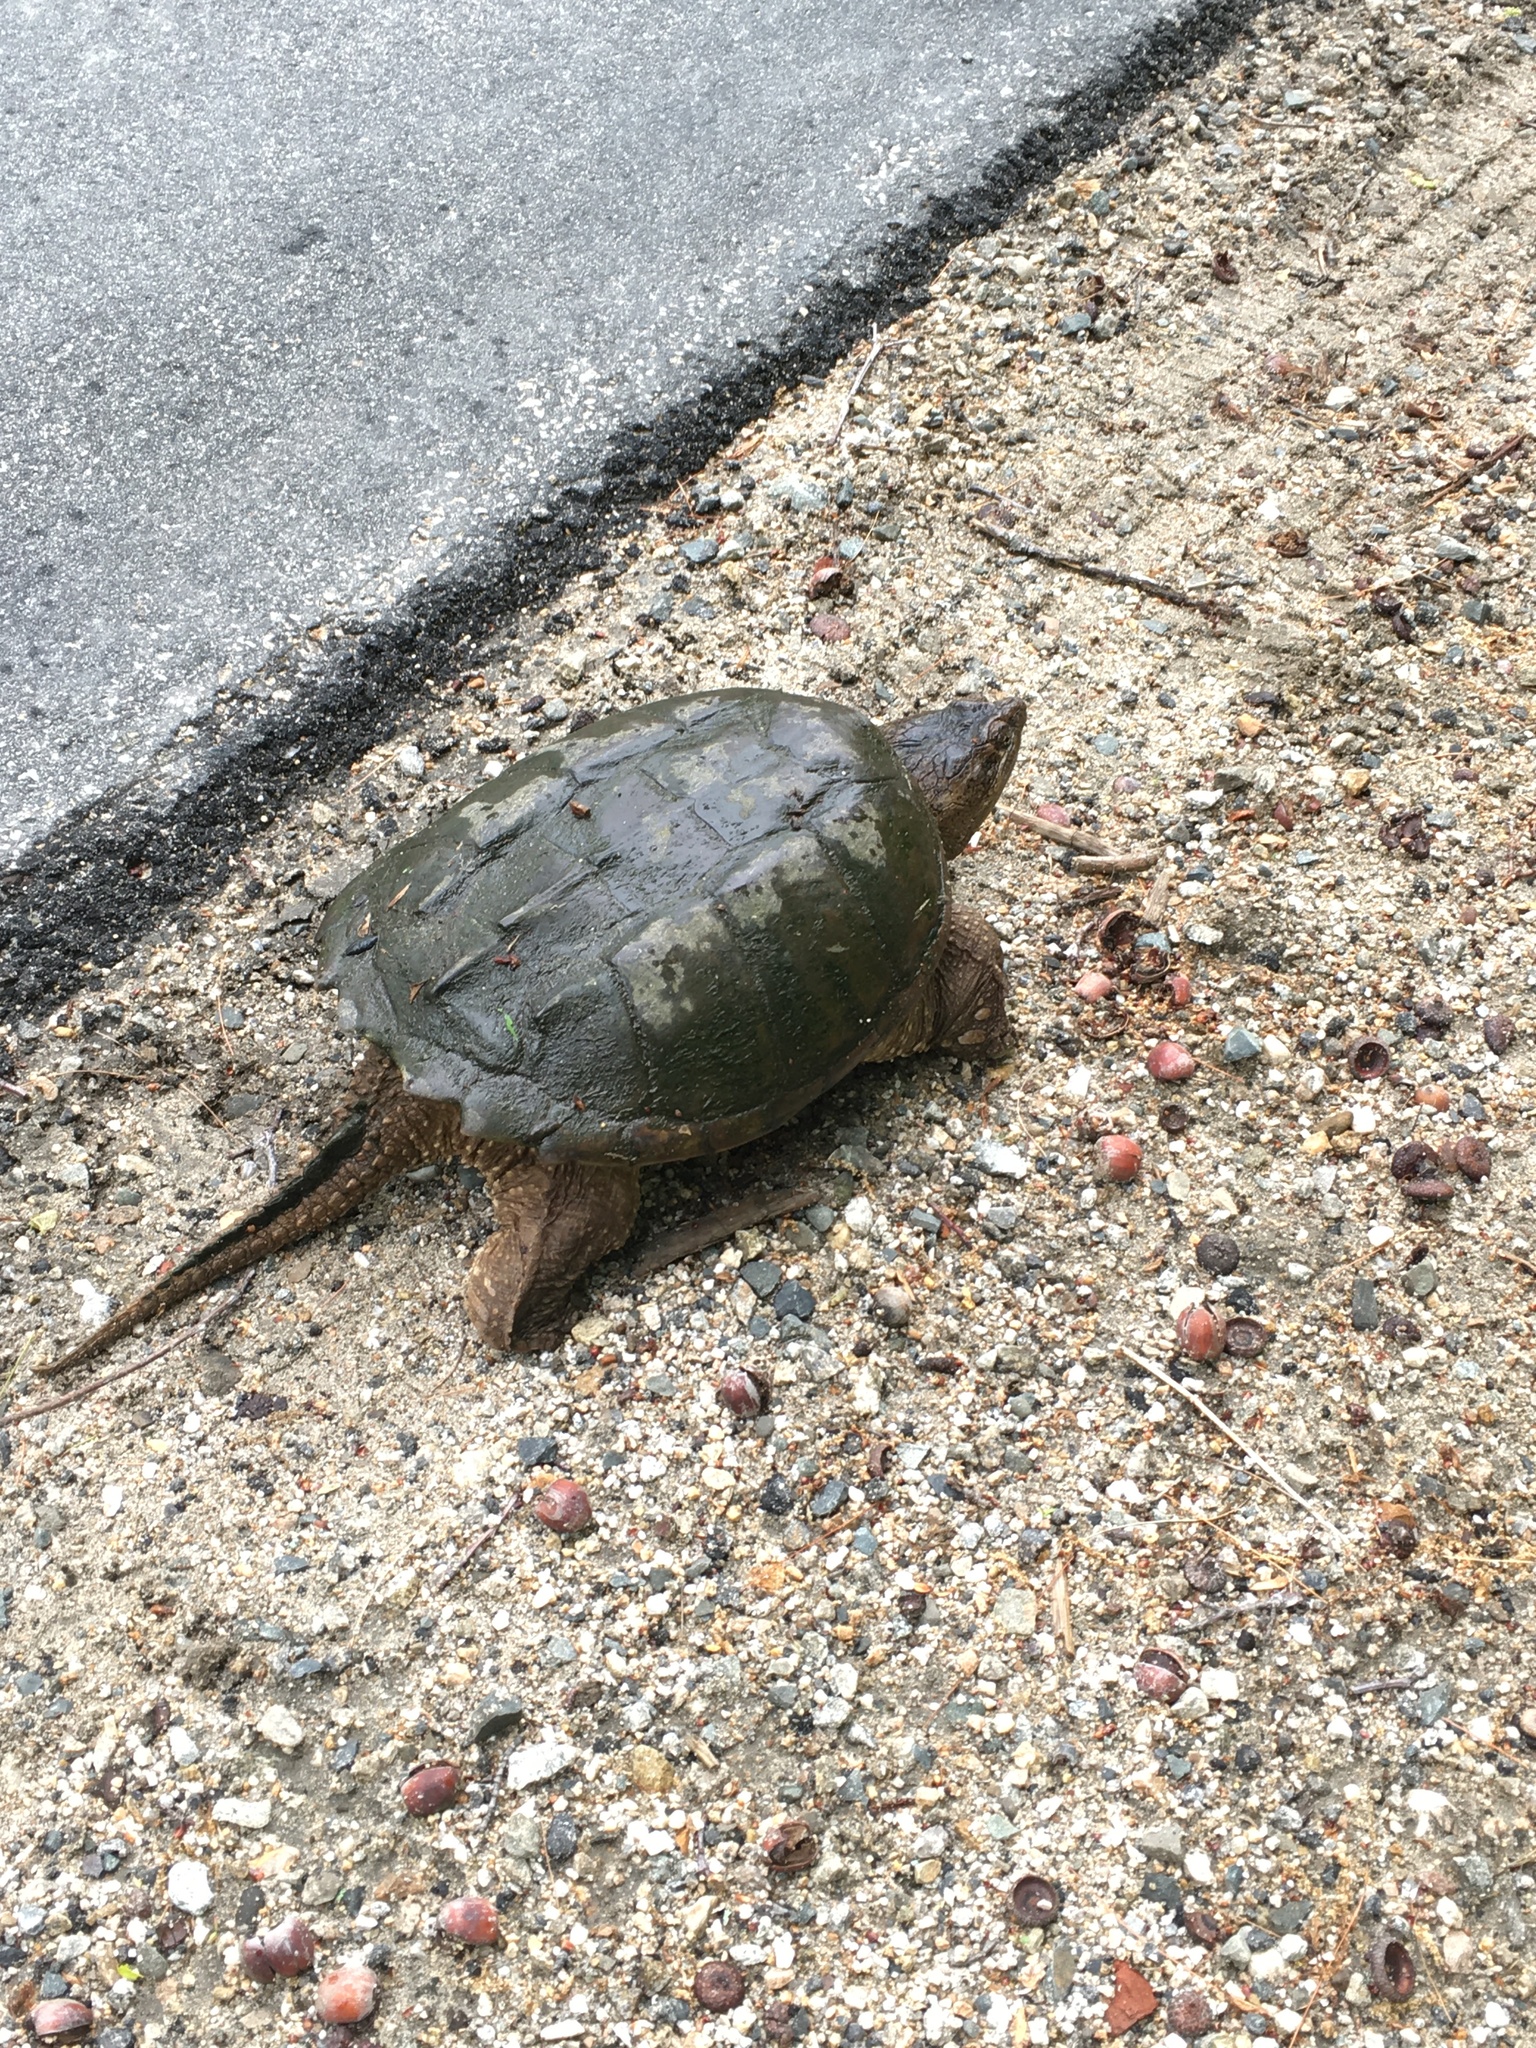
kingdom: Animalia
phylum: Chordata
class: Testudines
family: Chelydridae
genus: Chelydra
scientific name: Chelydra serpentina
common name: Common snapping turtle
